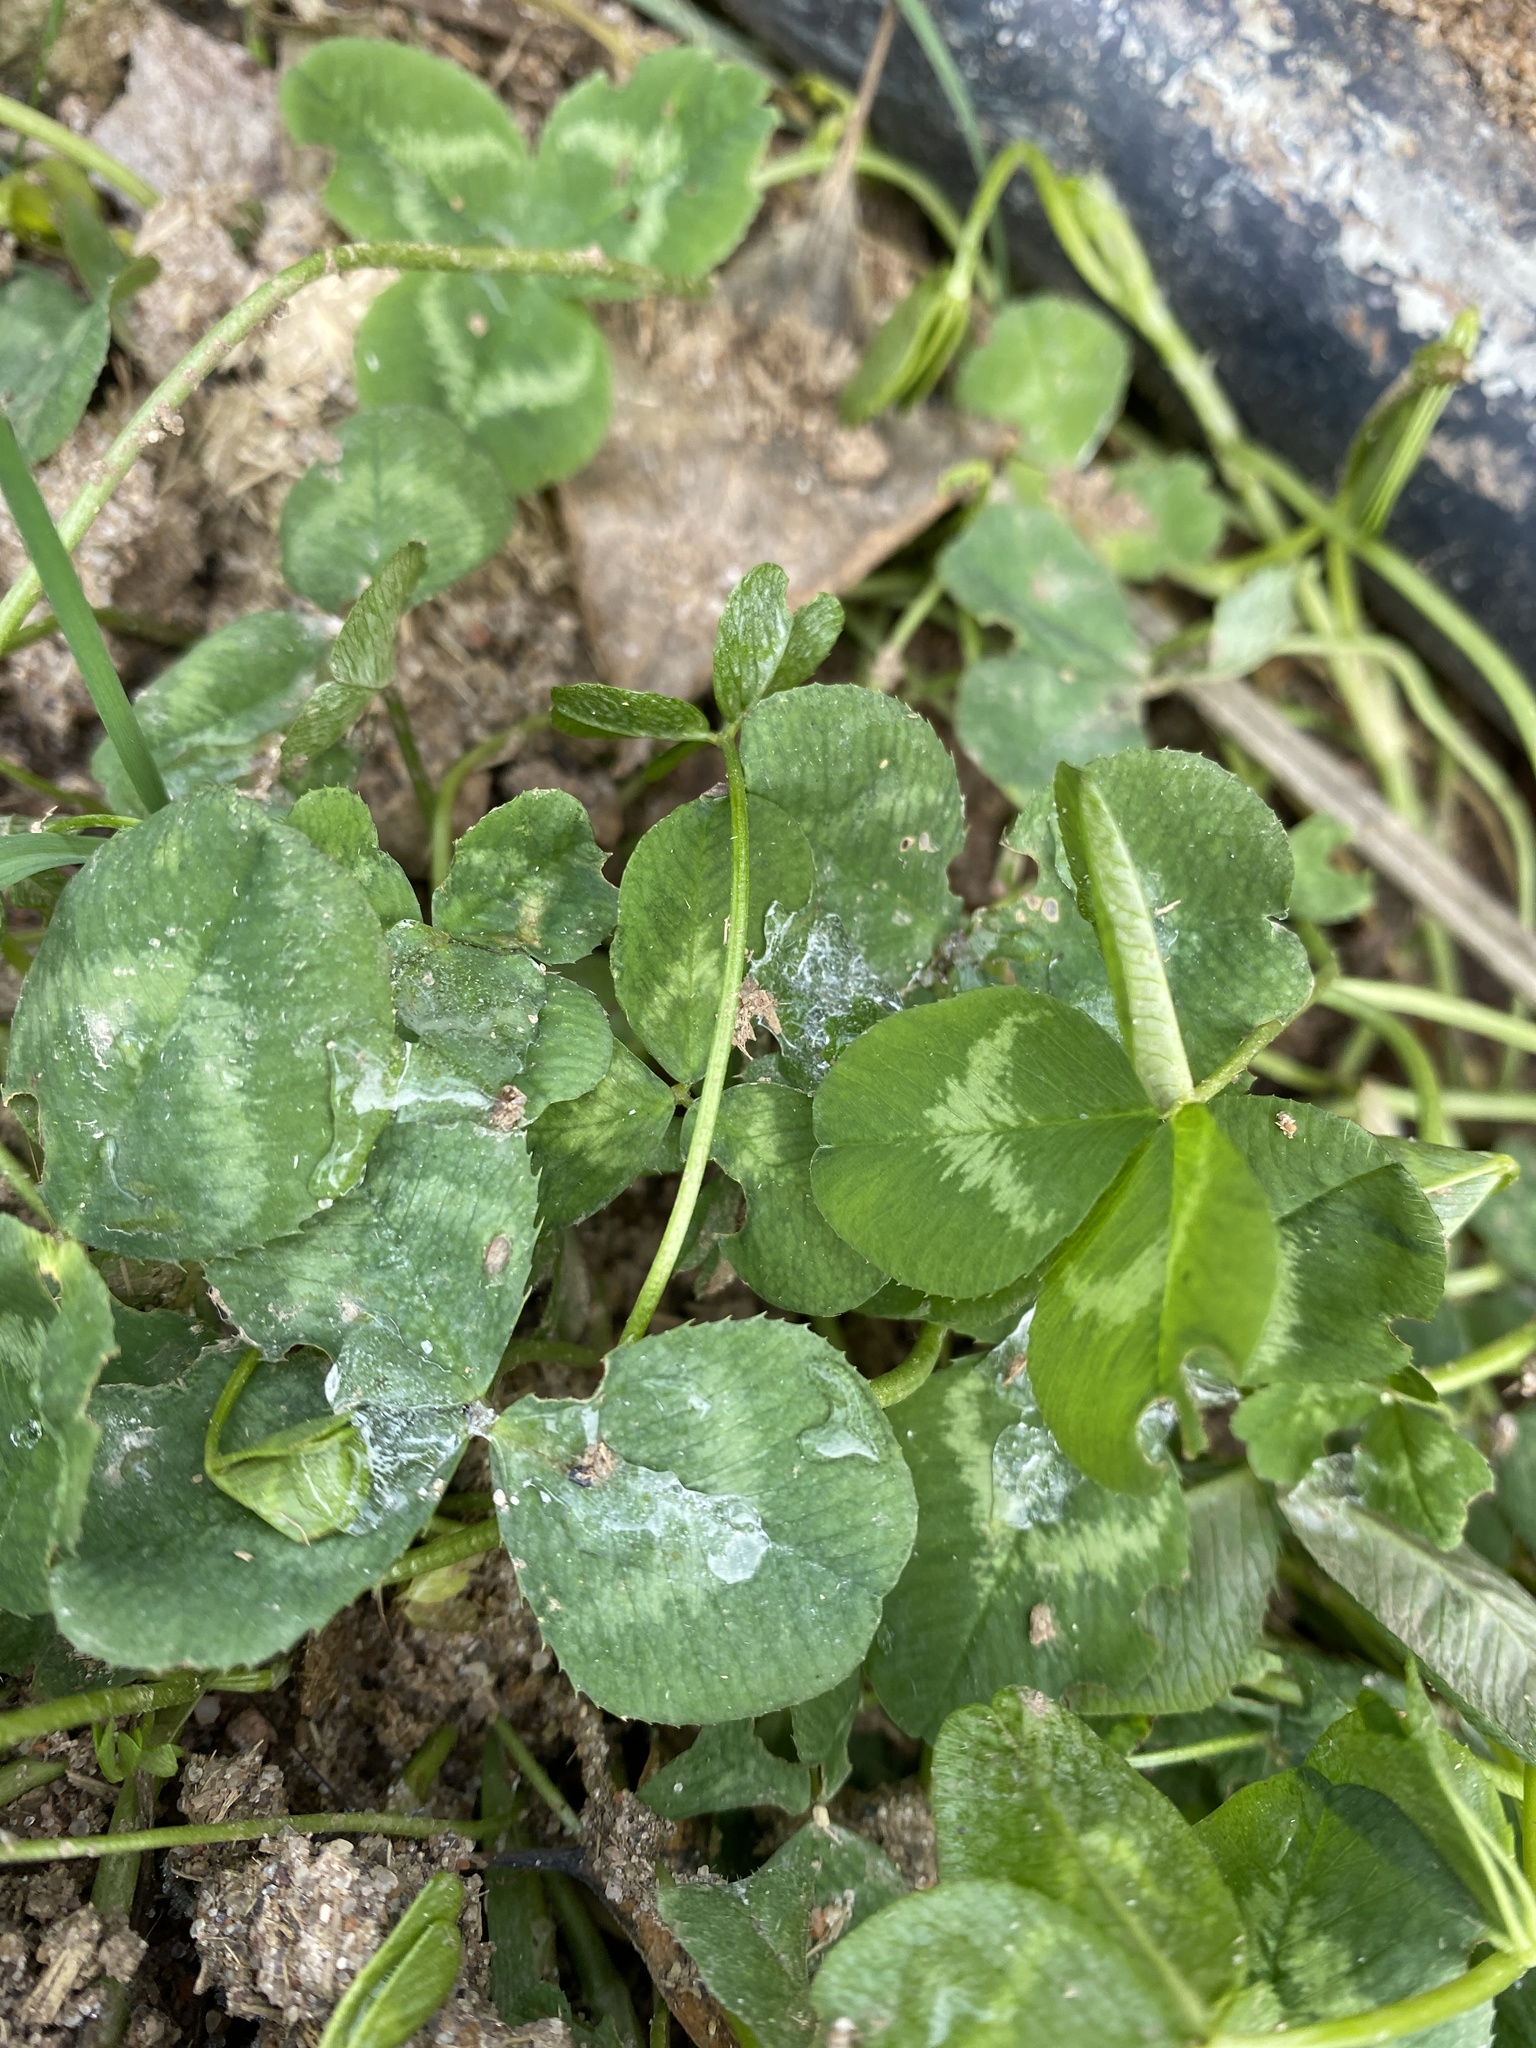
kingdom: Plantae
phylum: Tracheophyta
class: Magnoliopsida
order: Fabales
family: Fabaceae
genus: Trifolium
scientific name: Trifolium repens
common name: White clover
